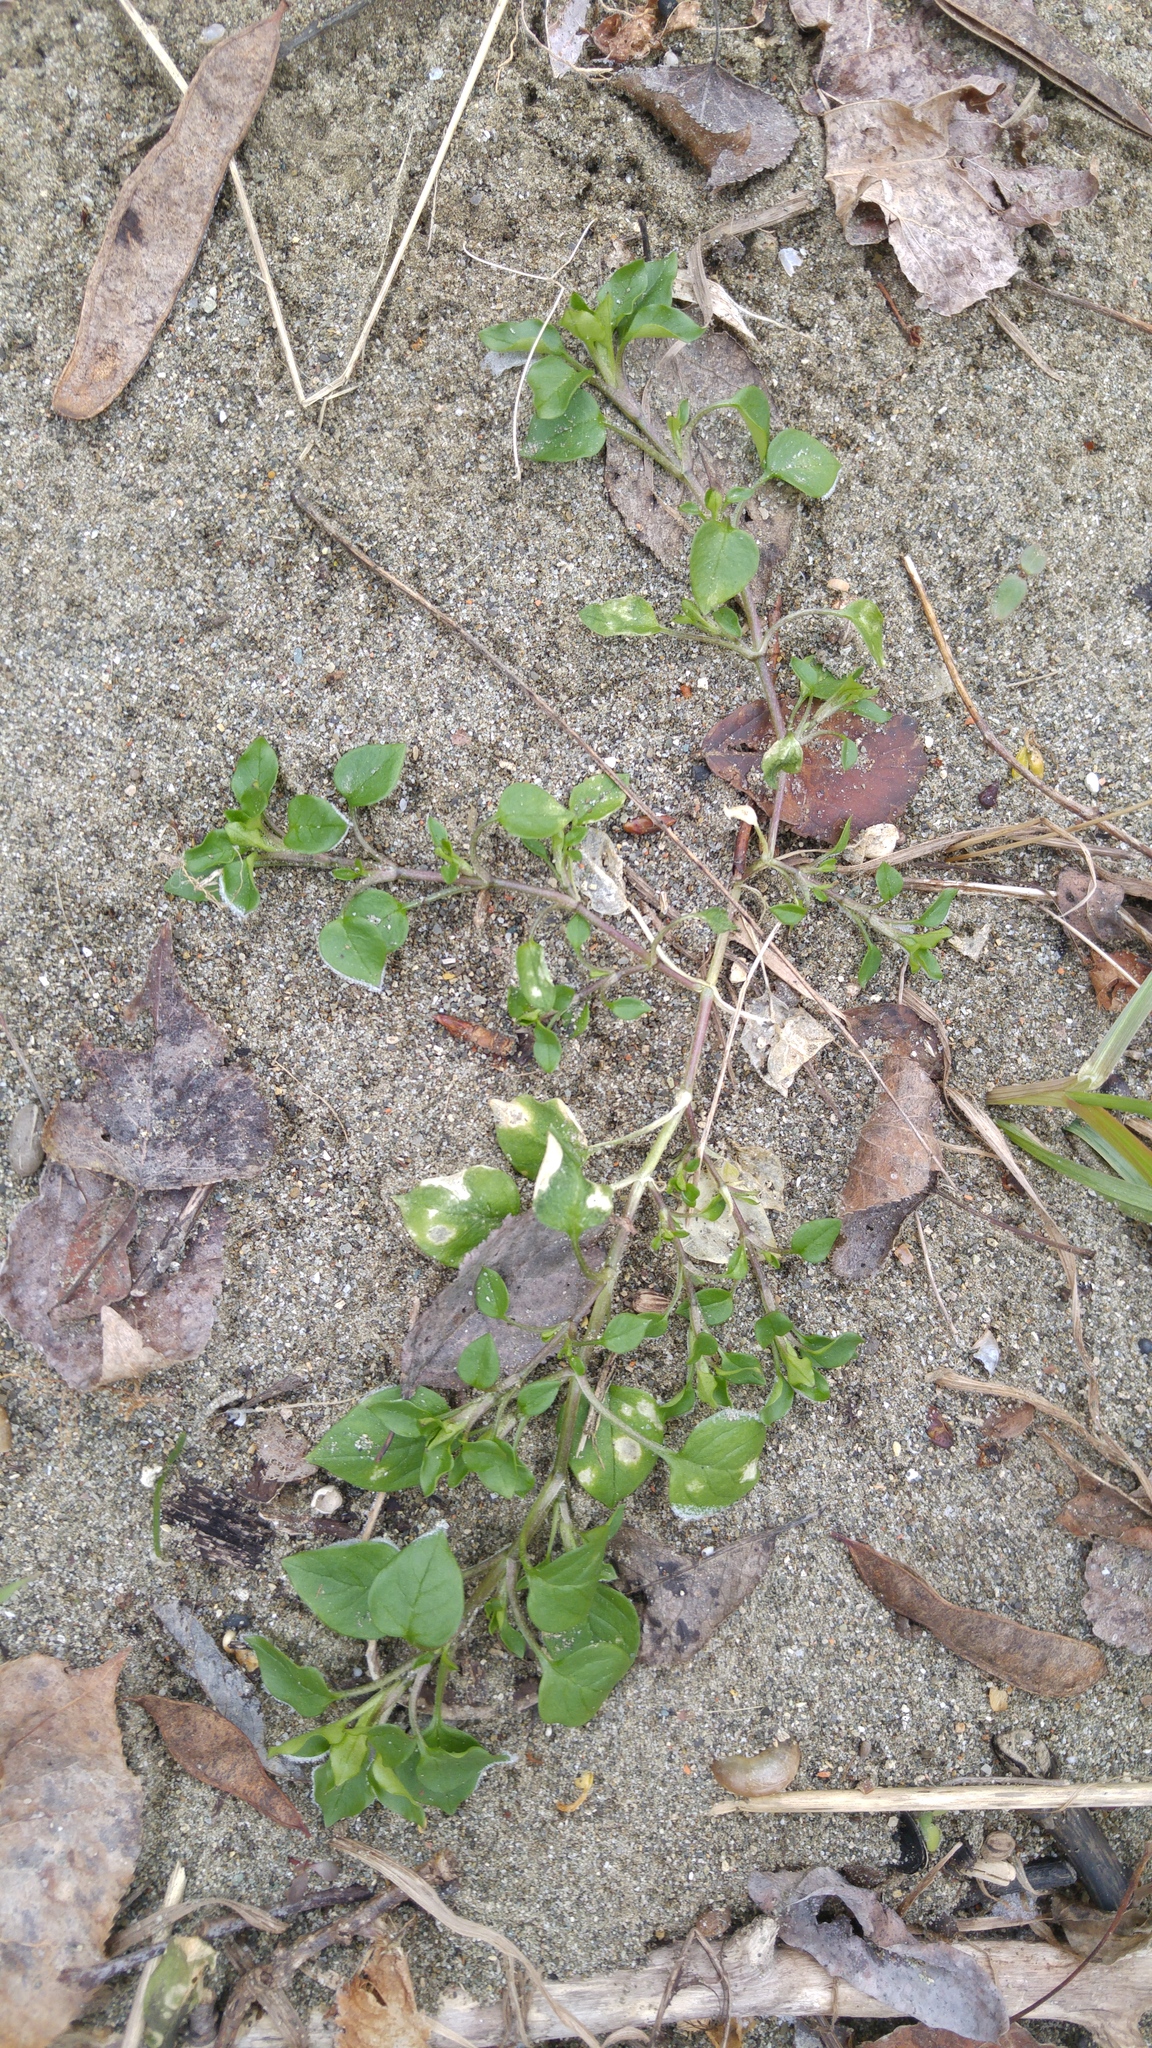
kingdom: Plantae
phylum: Tracheophyta
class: Magnoliopsida
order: Caryophyllales
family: Caryophyllaceae
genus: Stellaria
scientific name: Stellaria media
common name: Common chickweed
